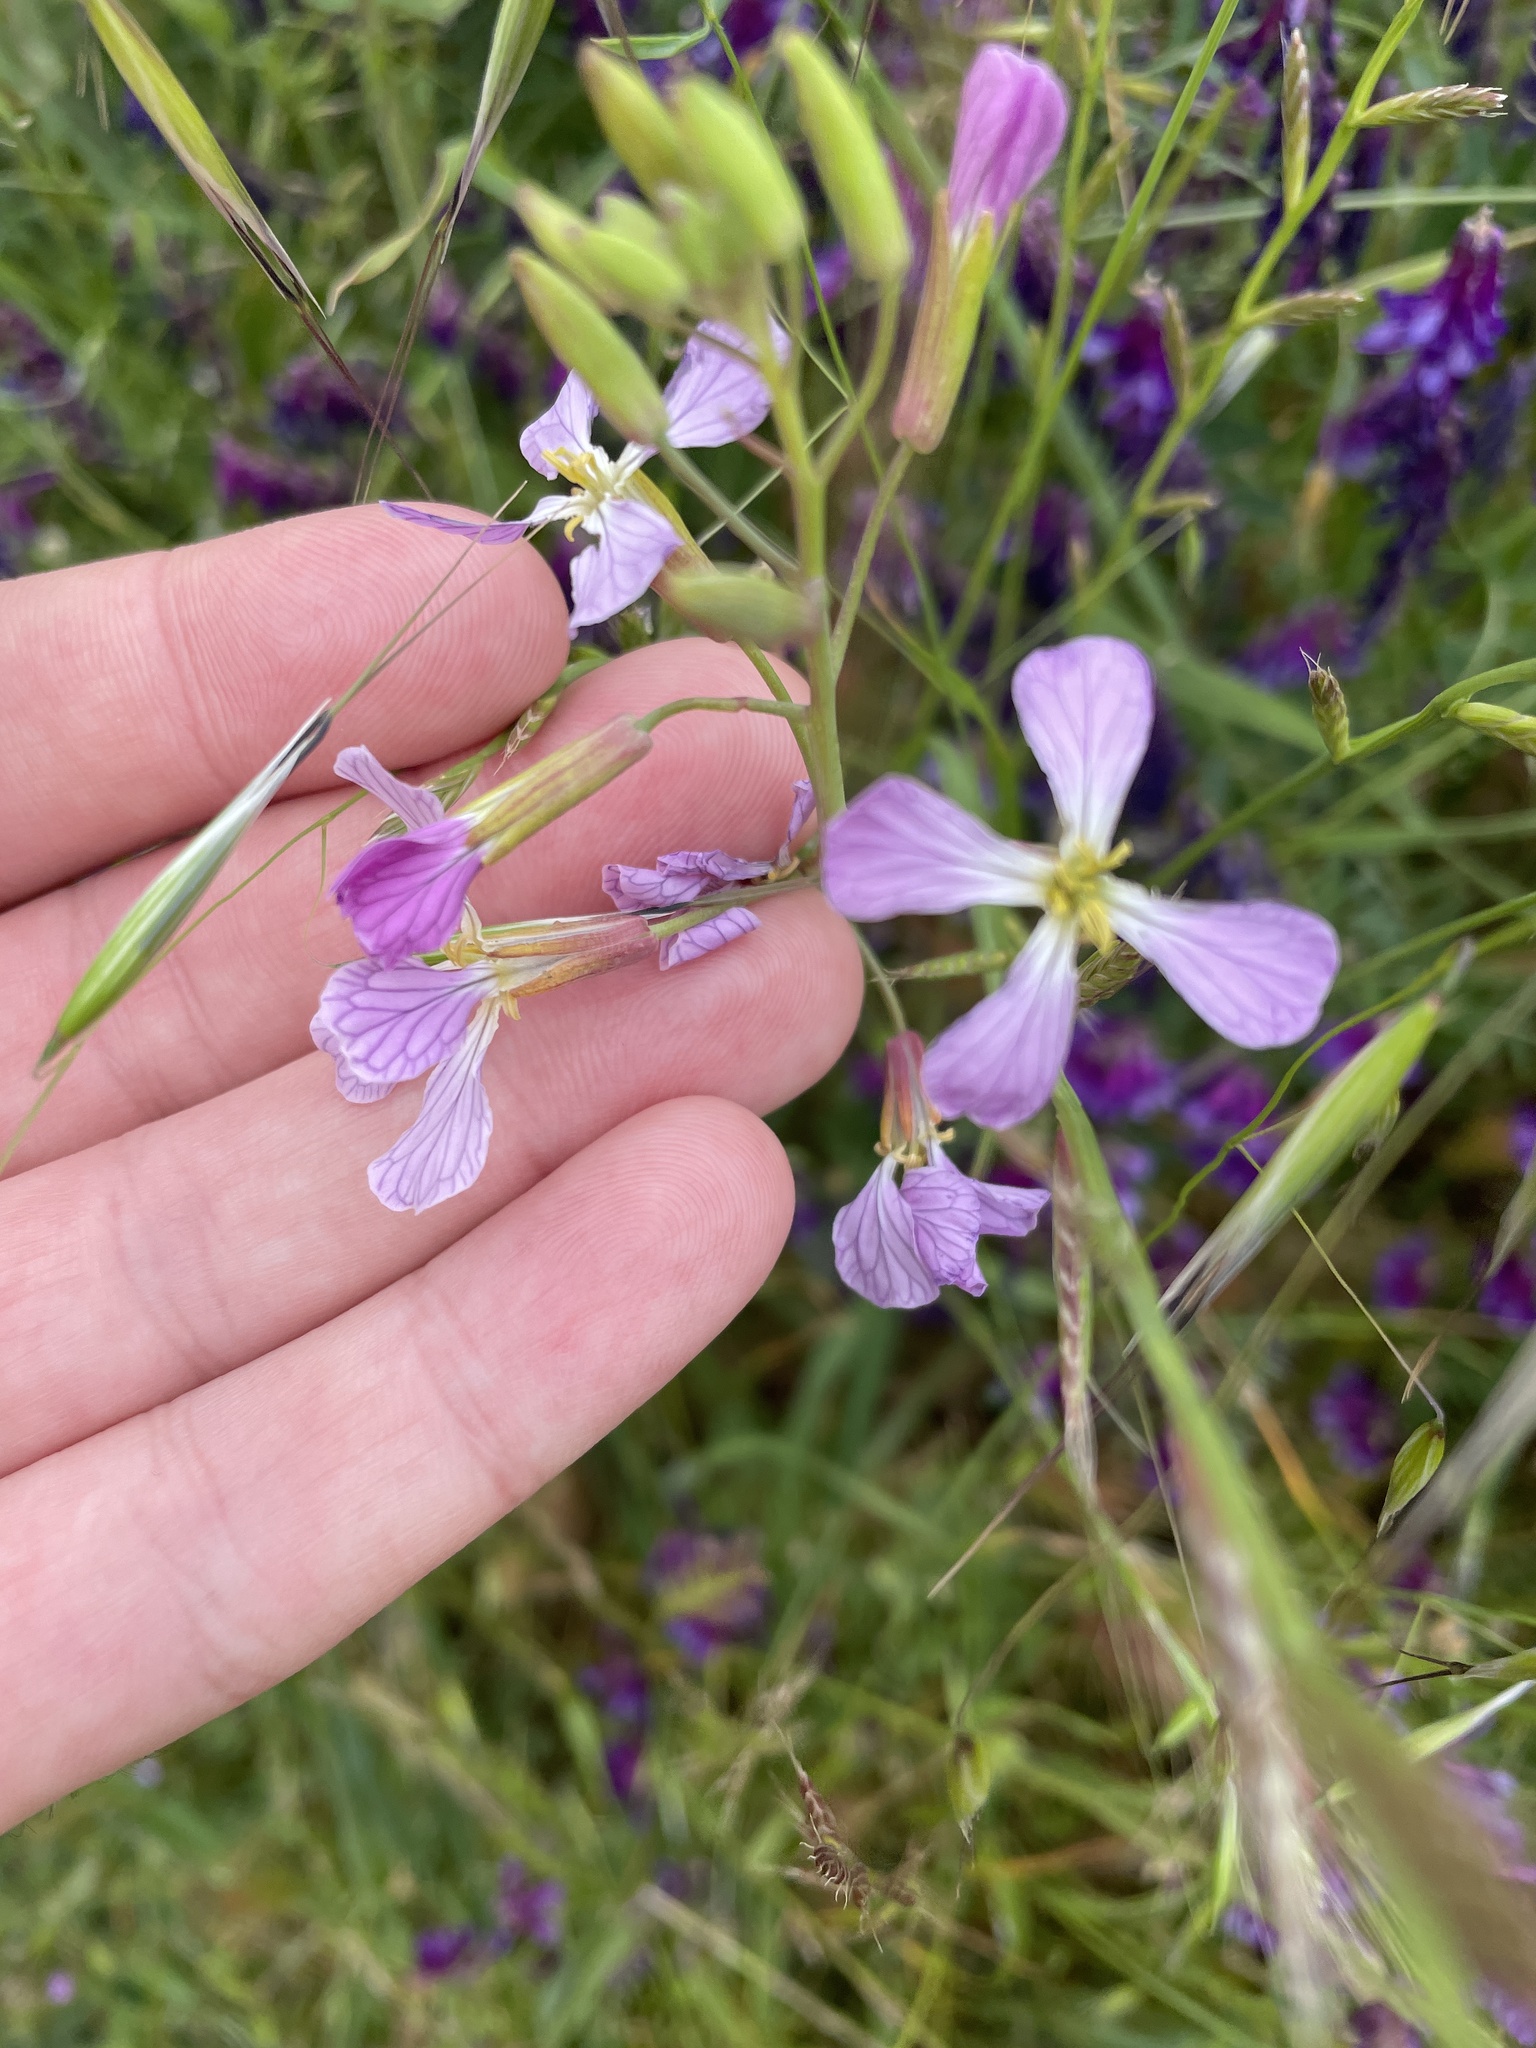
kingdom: Plantae
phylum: Tracheophyta
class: Magnoliopsida
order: Brassicales
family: Brassicaceae
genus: Raphanus
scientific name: Raphanus sativus
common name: Cultivated radish
